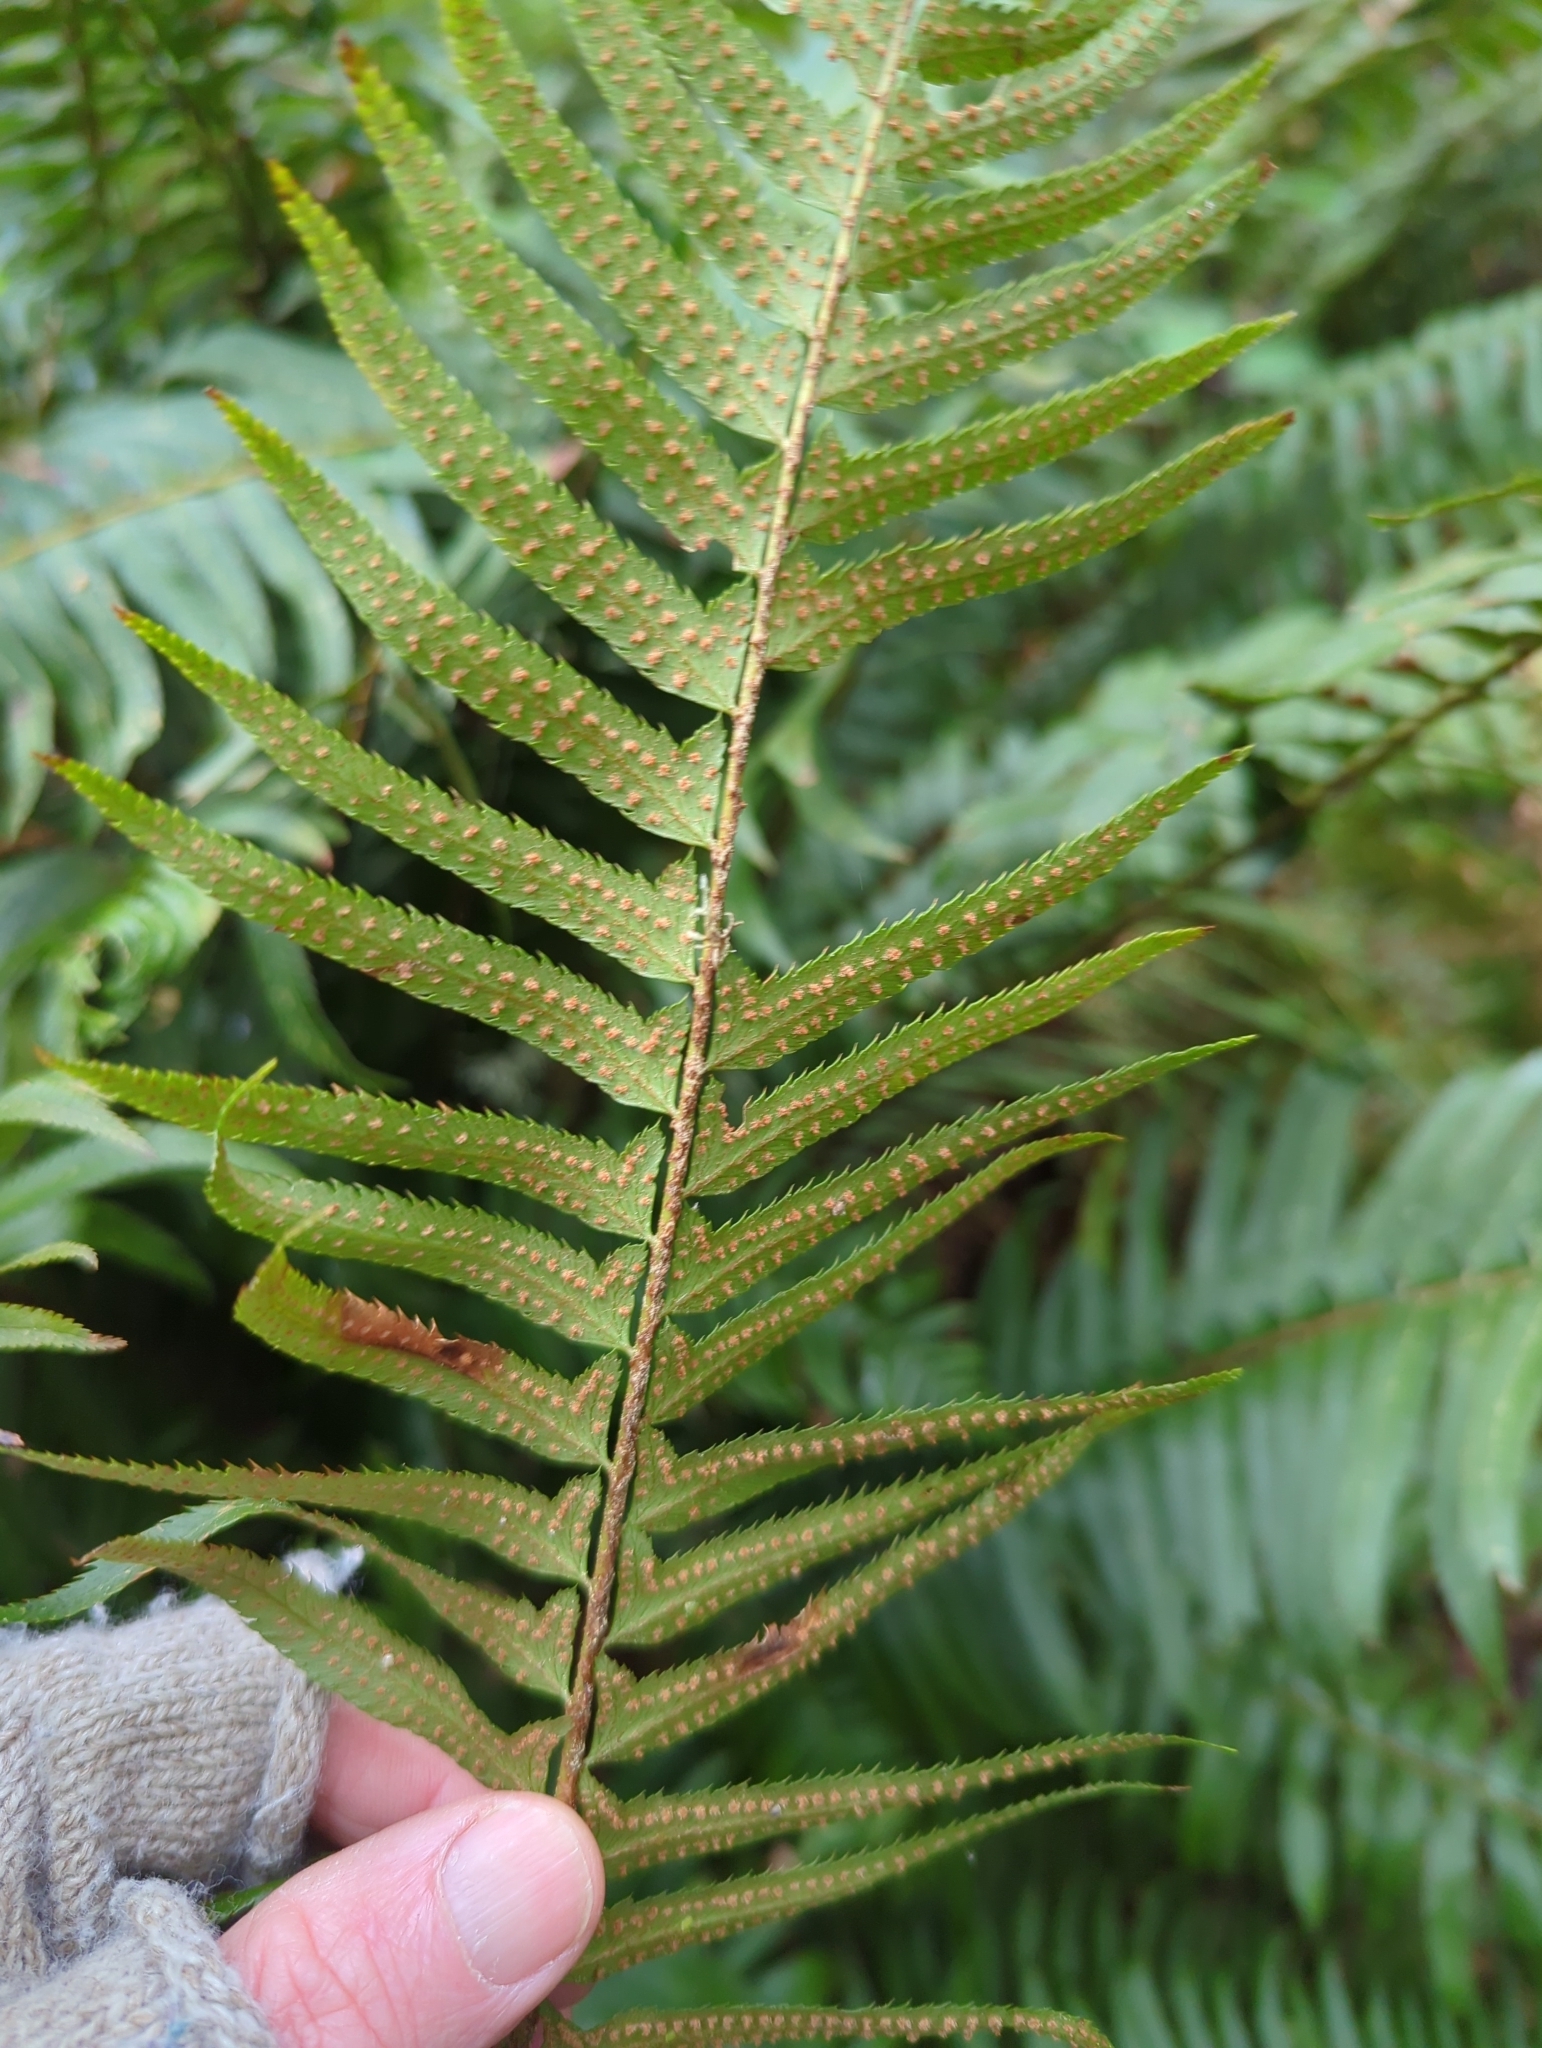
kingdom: Plantae
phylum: Tracheophyta
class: Polypodiopsida
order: Polypodiales
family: Dryopteridaceae
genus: Polystichum
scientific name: Polystichum munitum
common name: Western sword-fern
